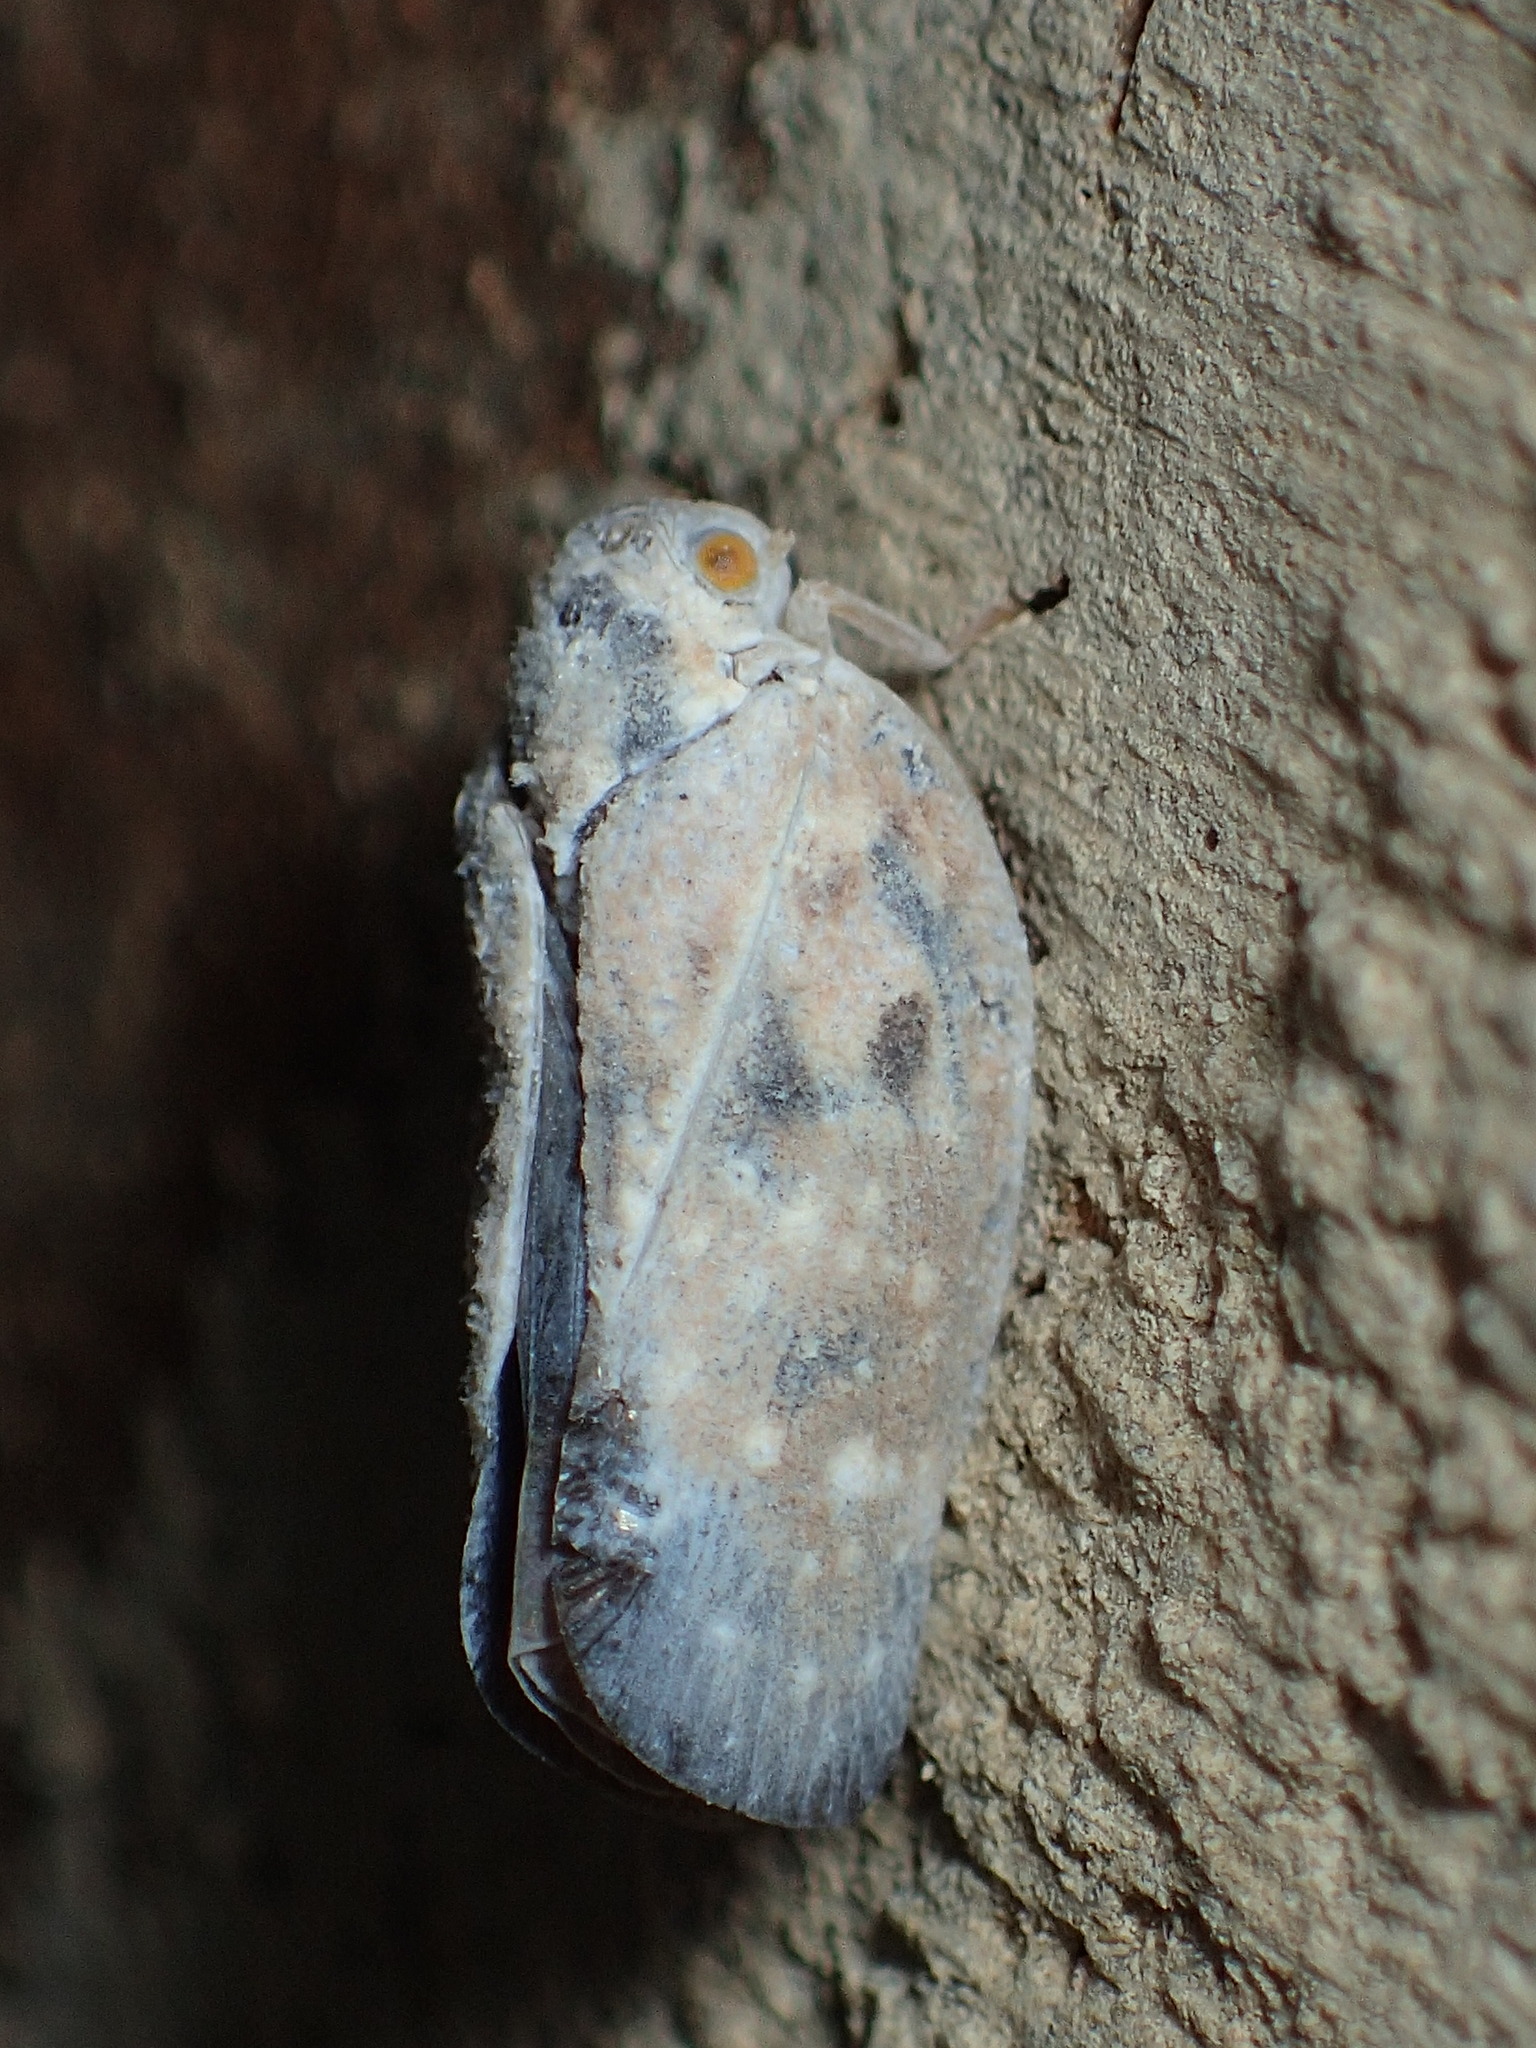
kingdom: Animalia
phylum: Arthropoda
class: Insecta
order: Hemiptera
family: Flatidae
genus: Metcalfa
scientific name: Metcalfa pruinosa
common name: Citrus flatid planthopper
